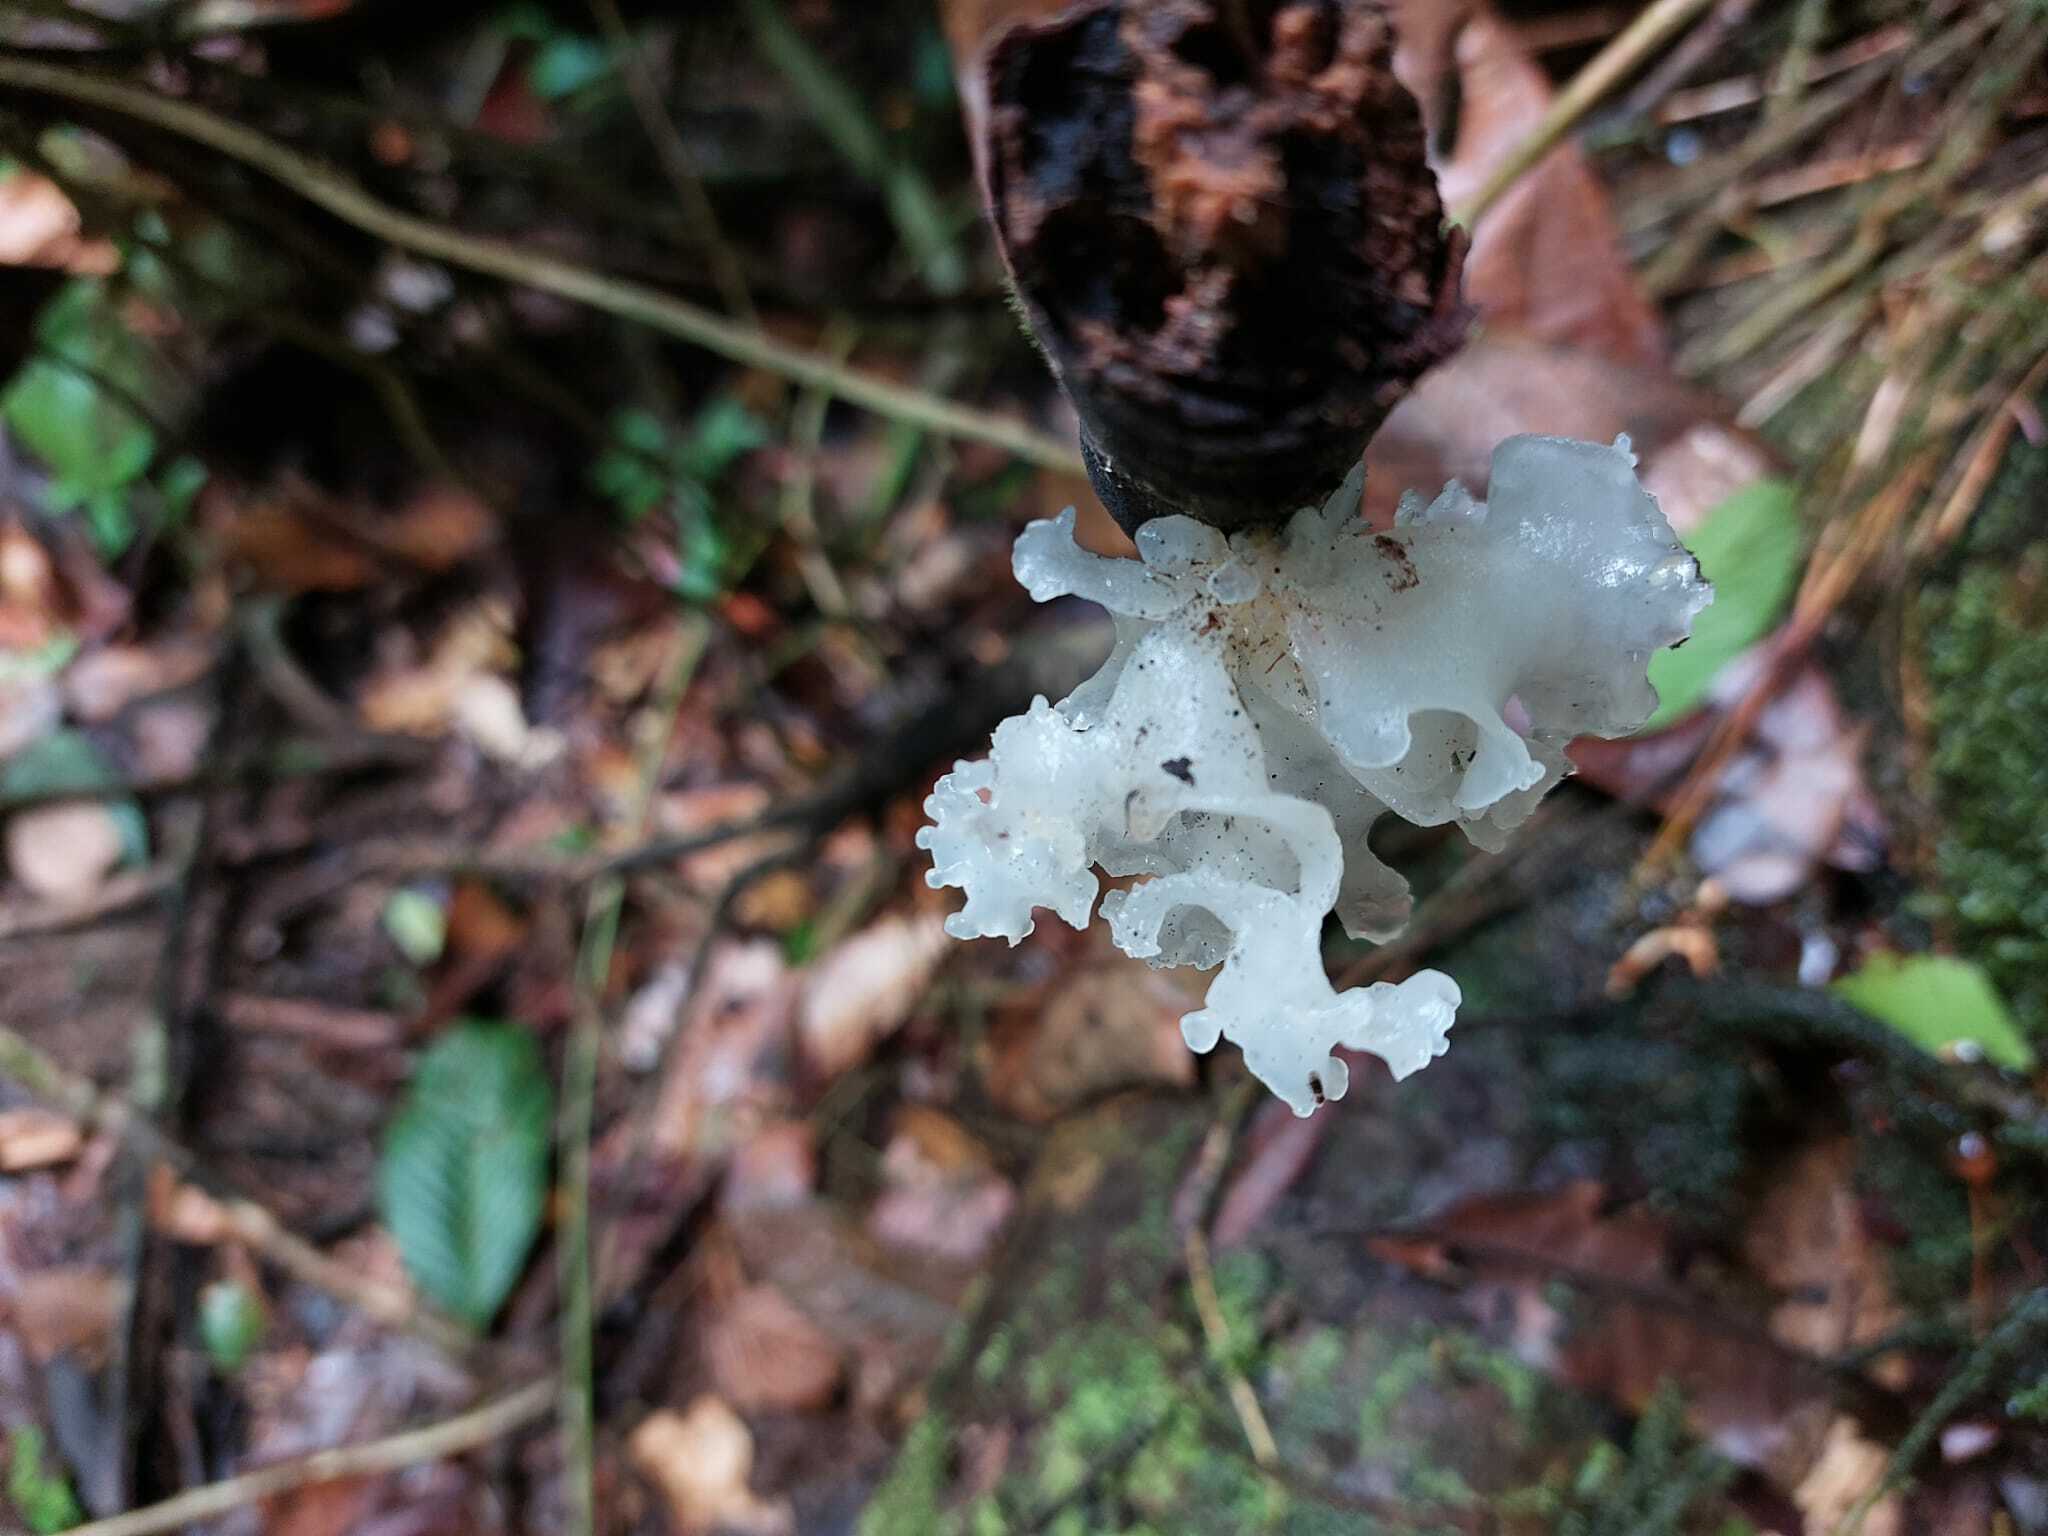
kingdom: Fungi
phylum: Basidiomycota
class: Tremellomycetes
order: Tremellales
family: Tremellaceae
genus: Tremella
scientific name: Tremella fuciformis
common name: Snow fungus
